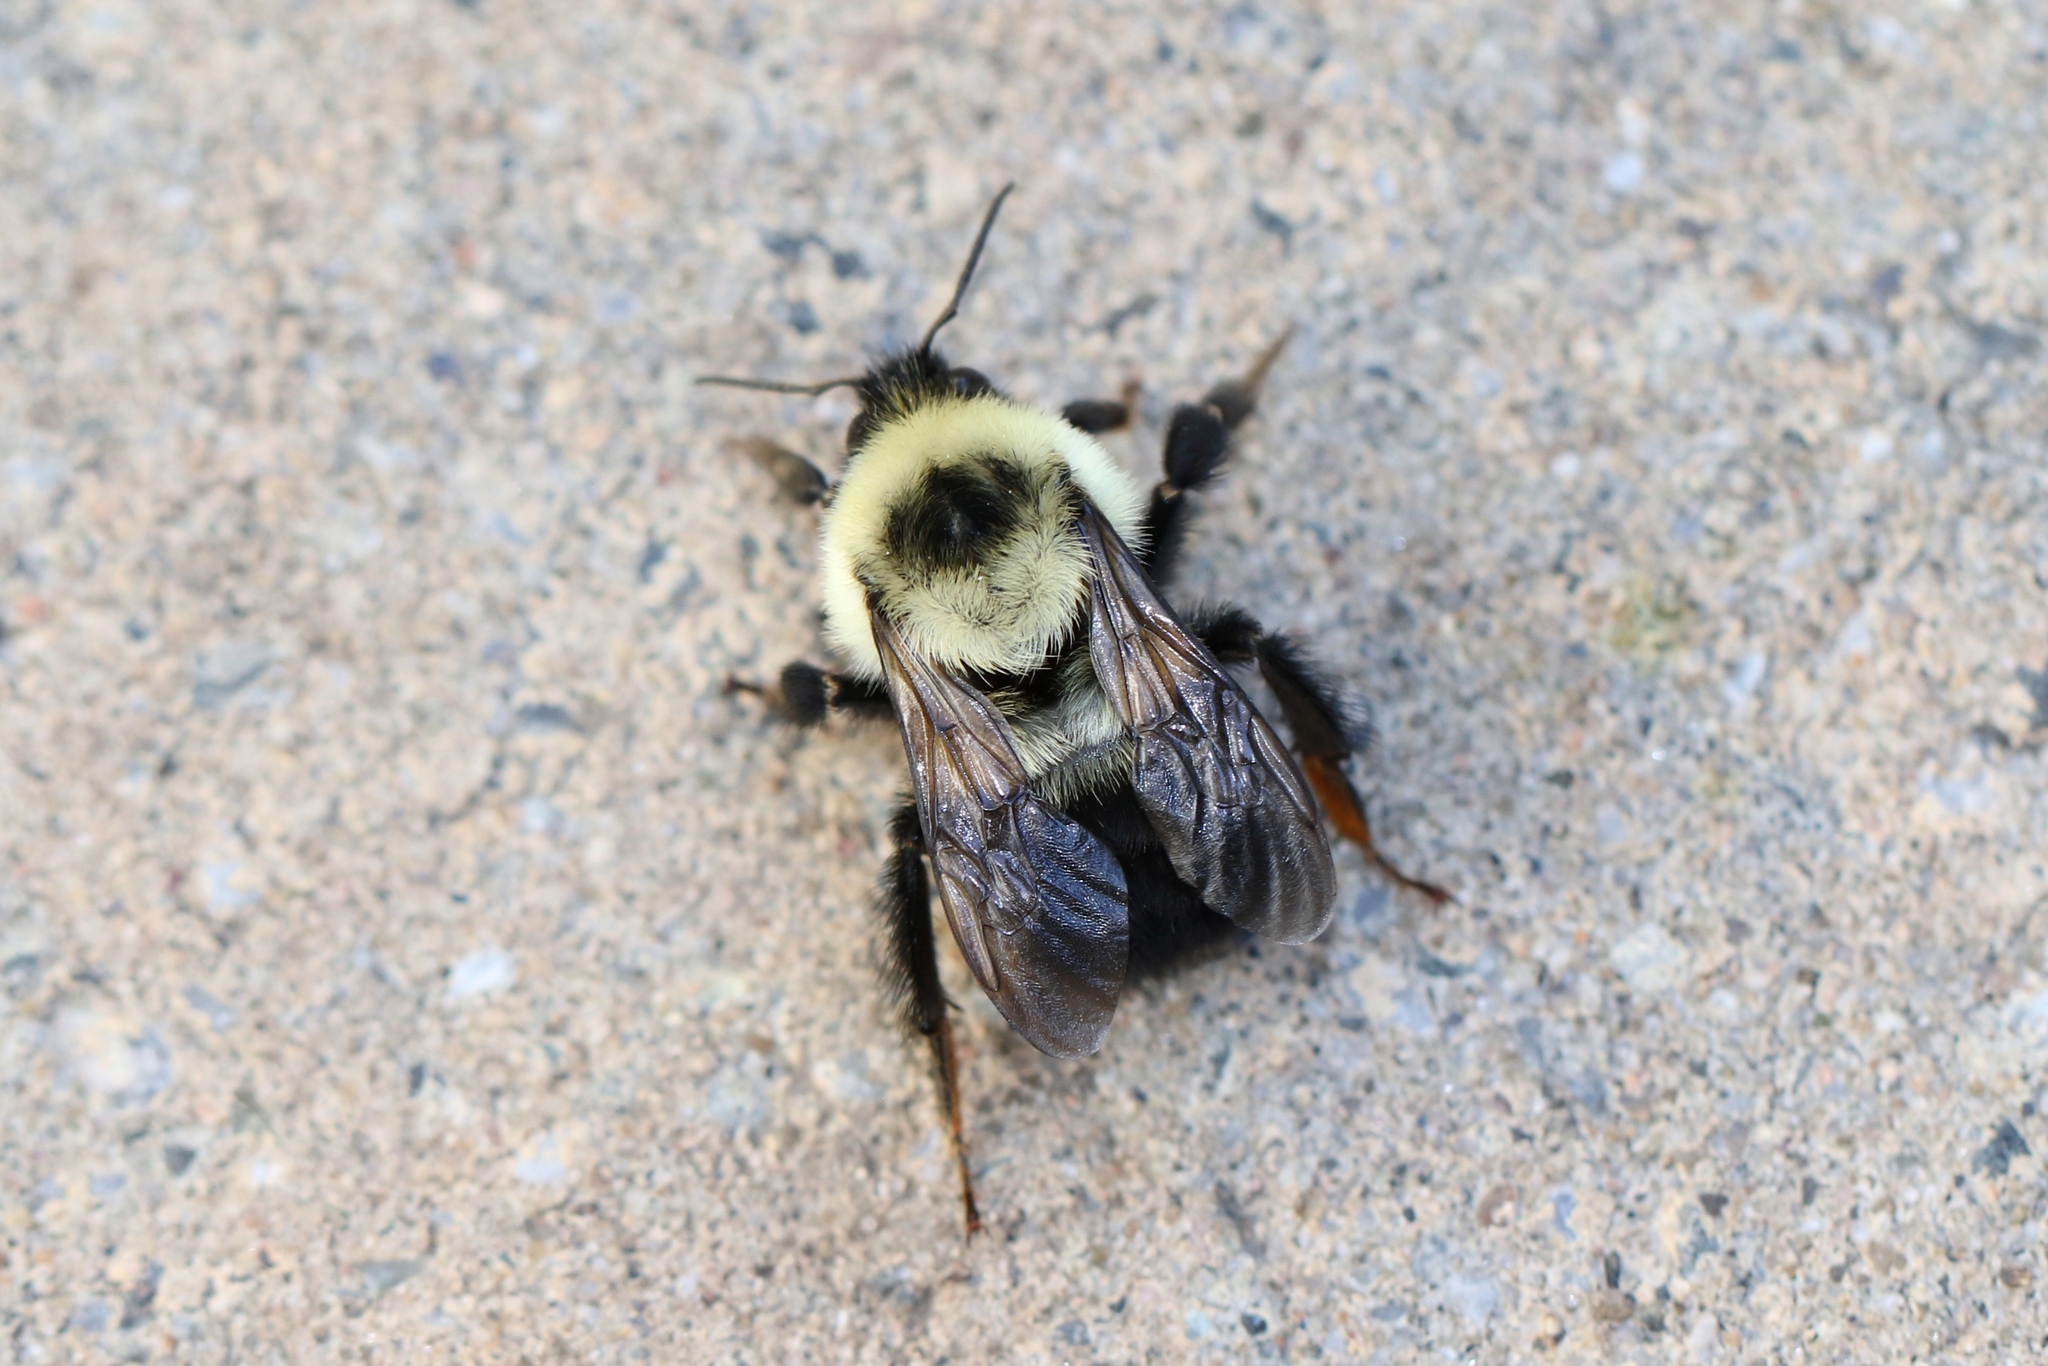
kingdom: Animalia
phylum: Arthropoda
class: Insecta
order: Hymenoptera
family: Apidae
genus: Bombus
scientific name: Bombus bimaculatus
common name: Two-spotted bumble bee
